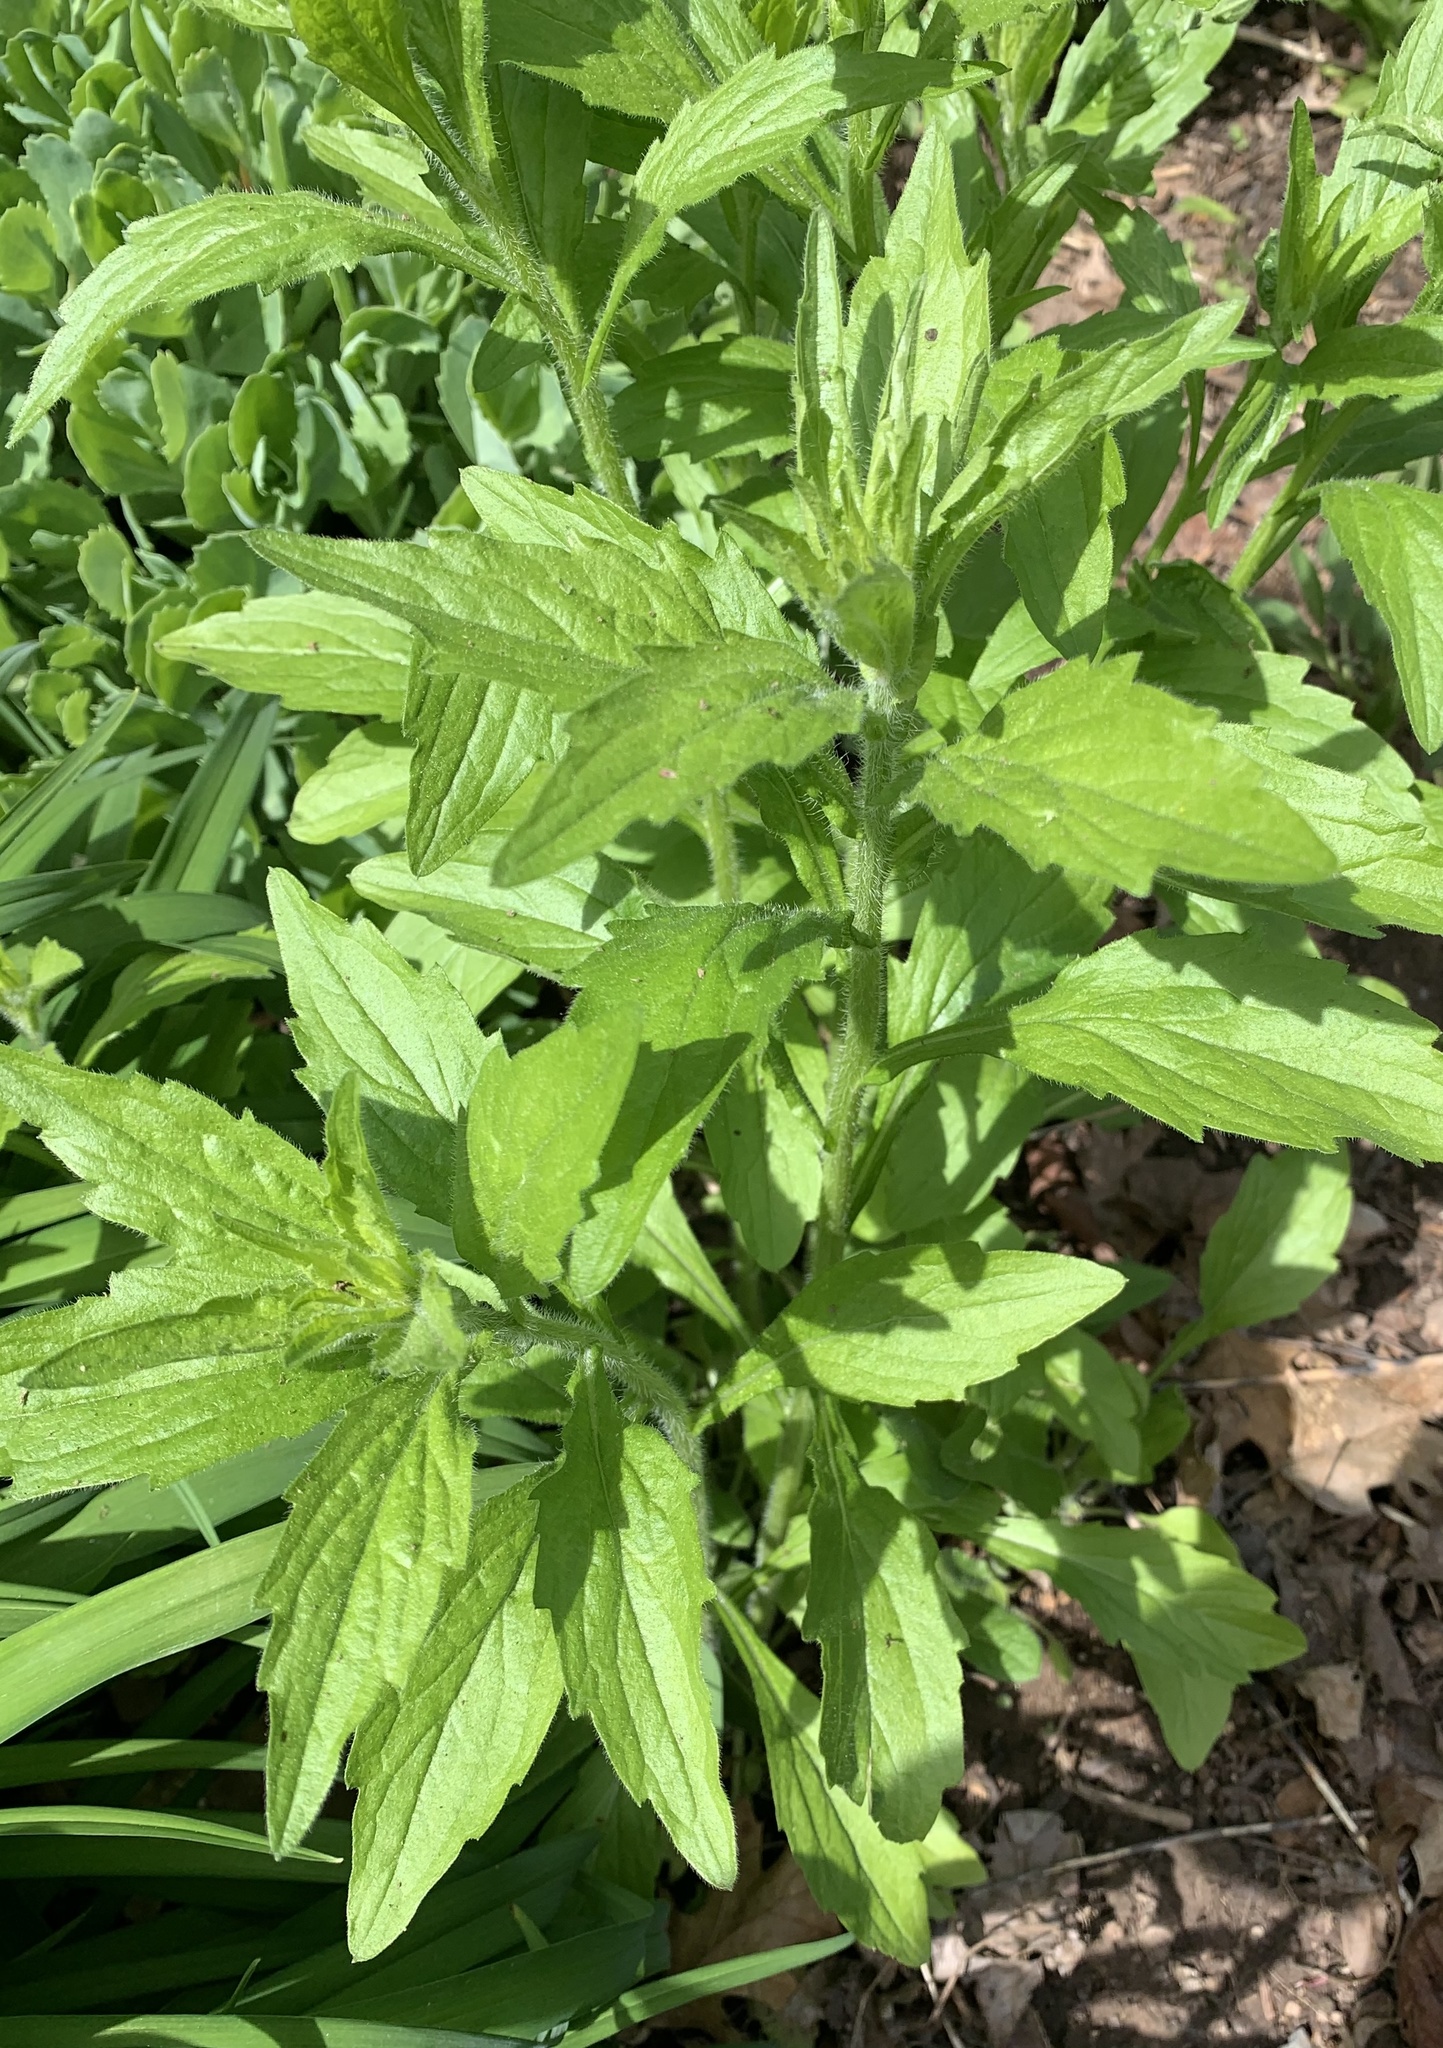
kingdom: Plantae
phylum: Tracheophyta
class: Magnoliopsida
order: Asterales
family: Asteraceae
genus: Erigeron
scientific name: Erigeron annuus
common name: Tall fleabane
